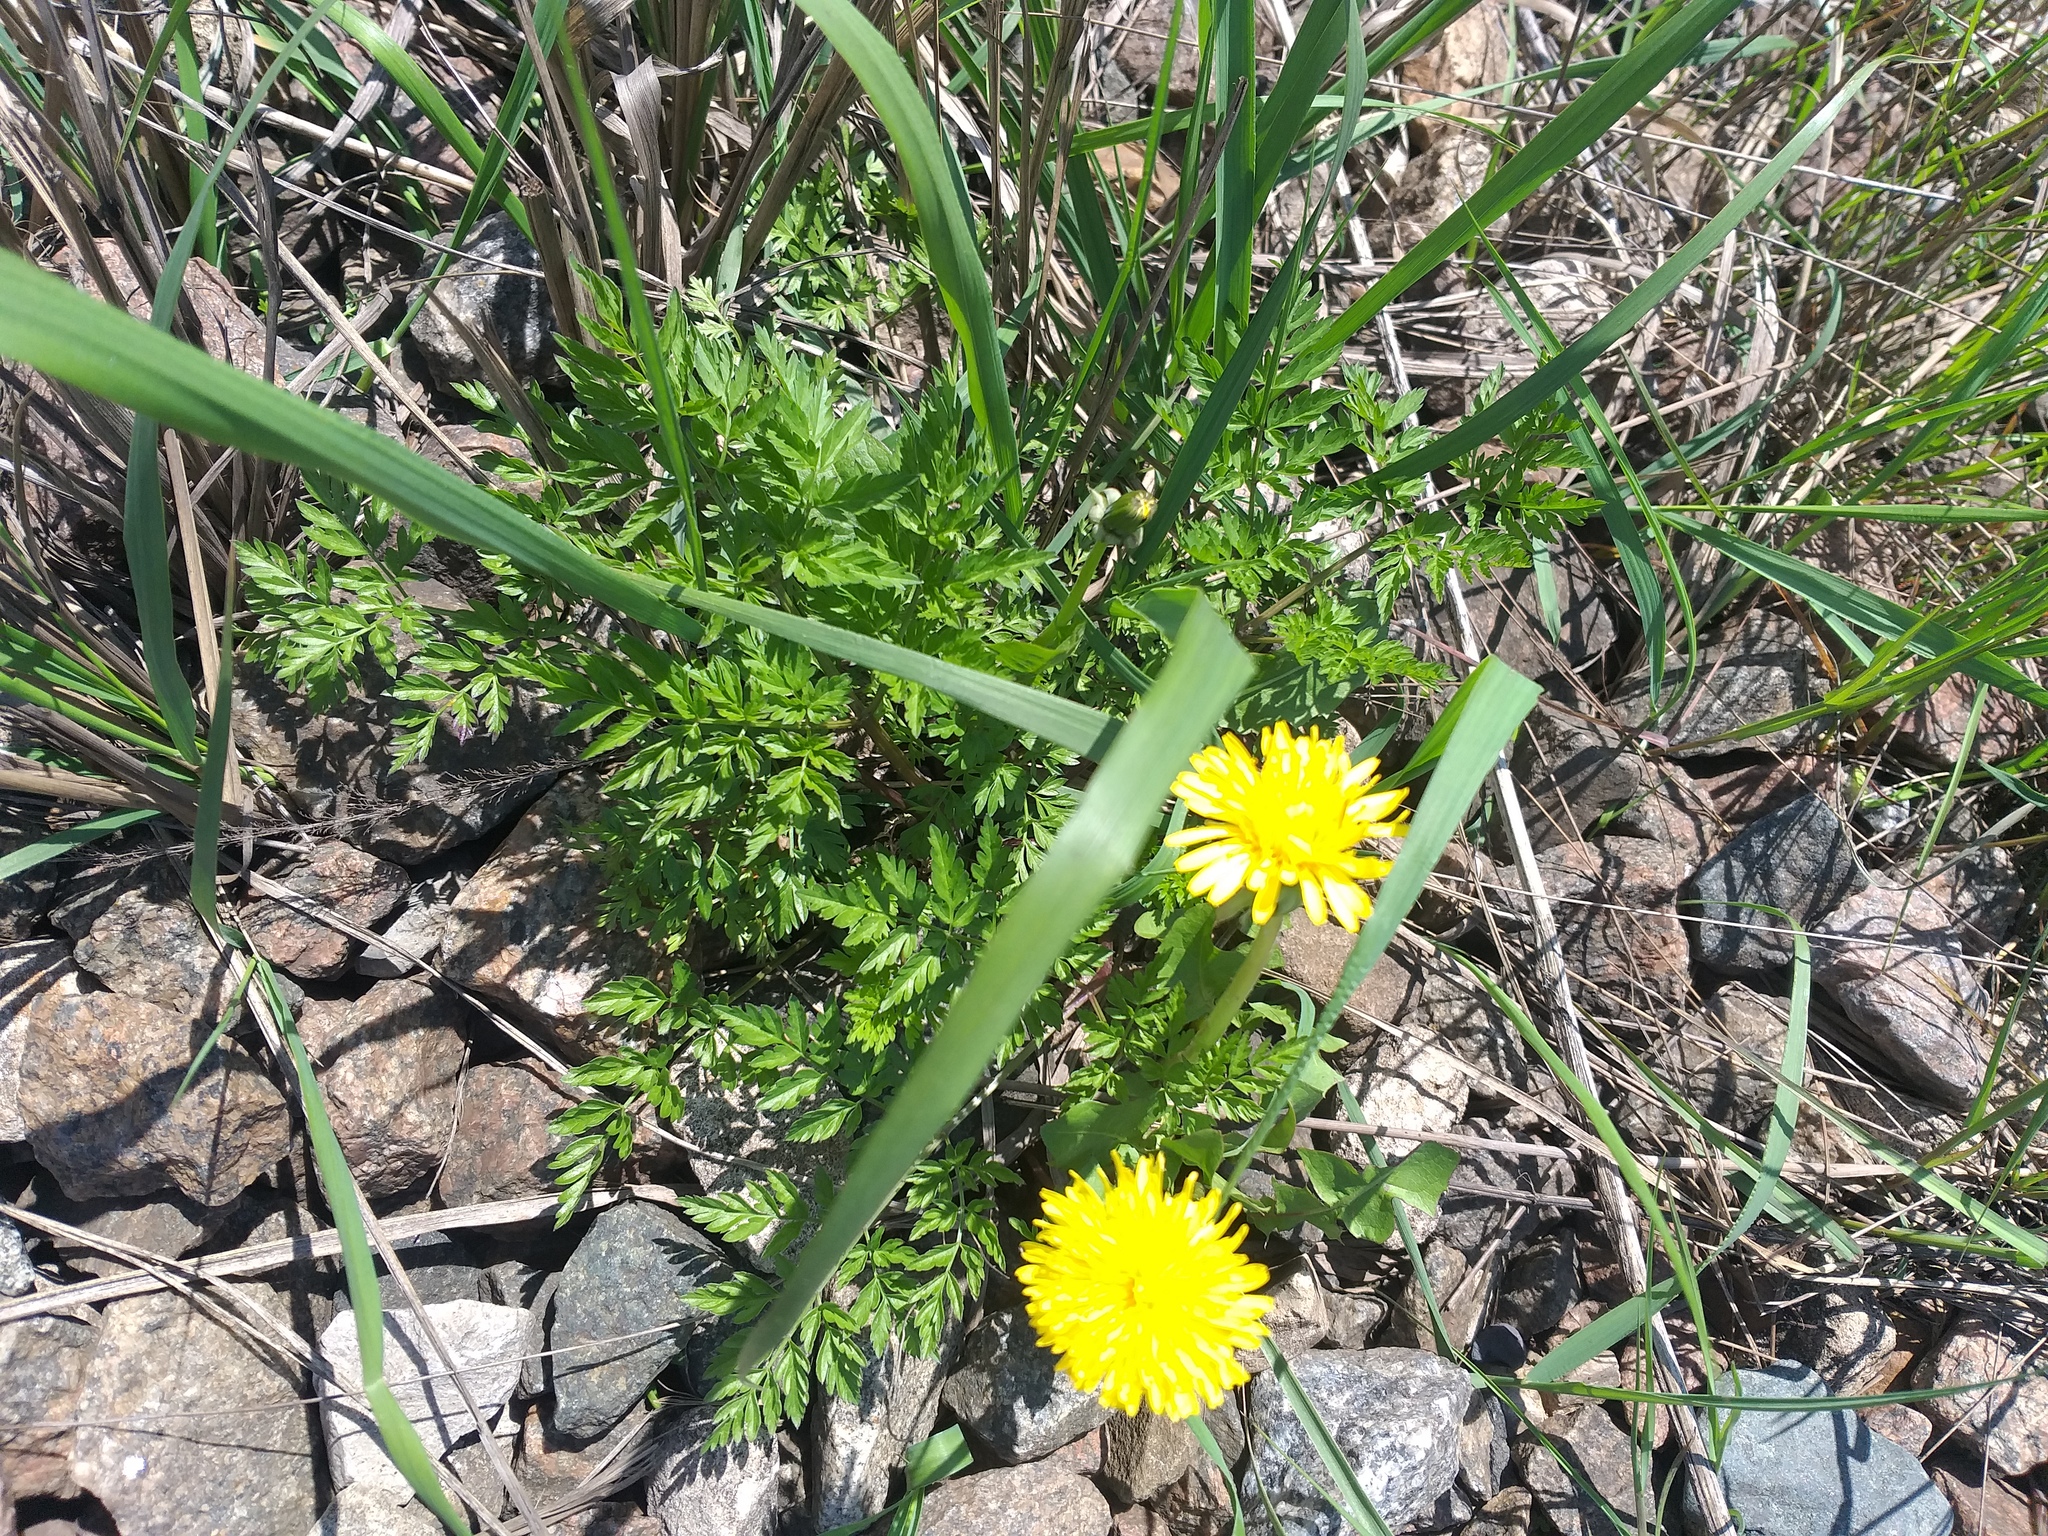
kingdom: Plantae
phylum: Tracheophyta
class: Magnoliopsida
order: Apiales
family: Apiaceae
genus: Anthriscus
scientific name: Anthriscus sylvestris
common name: Cow parsley
